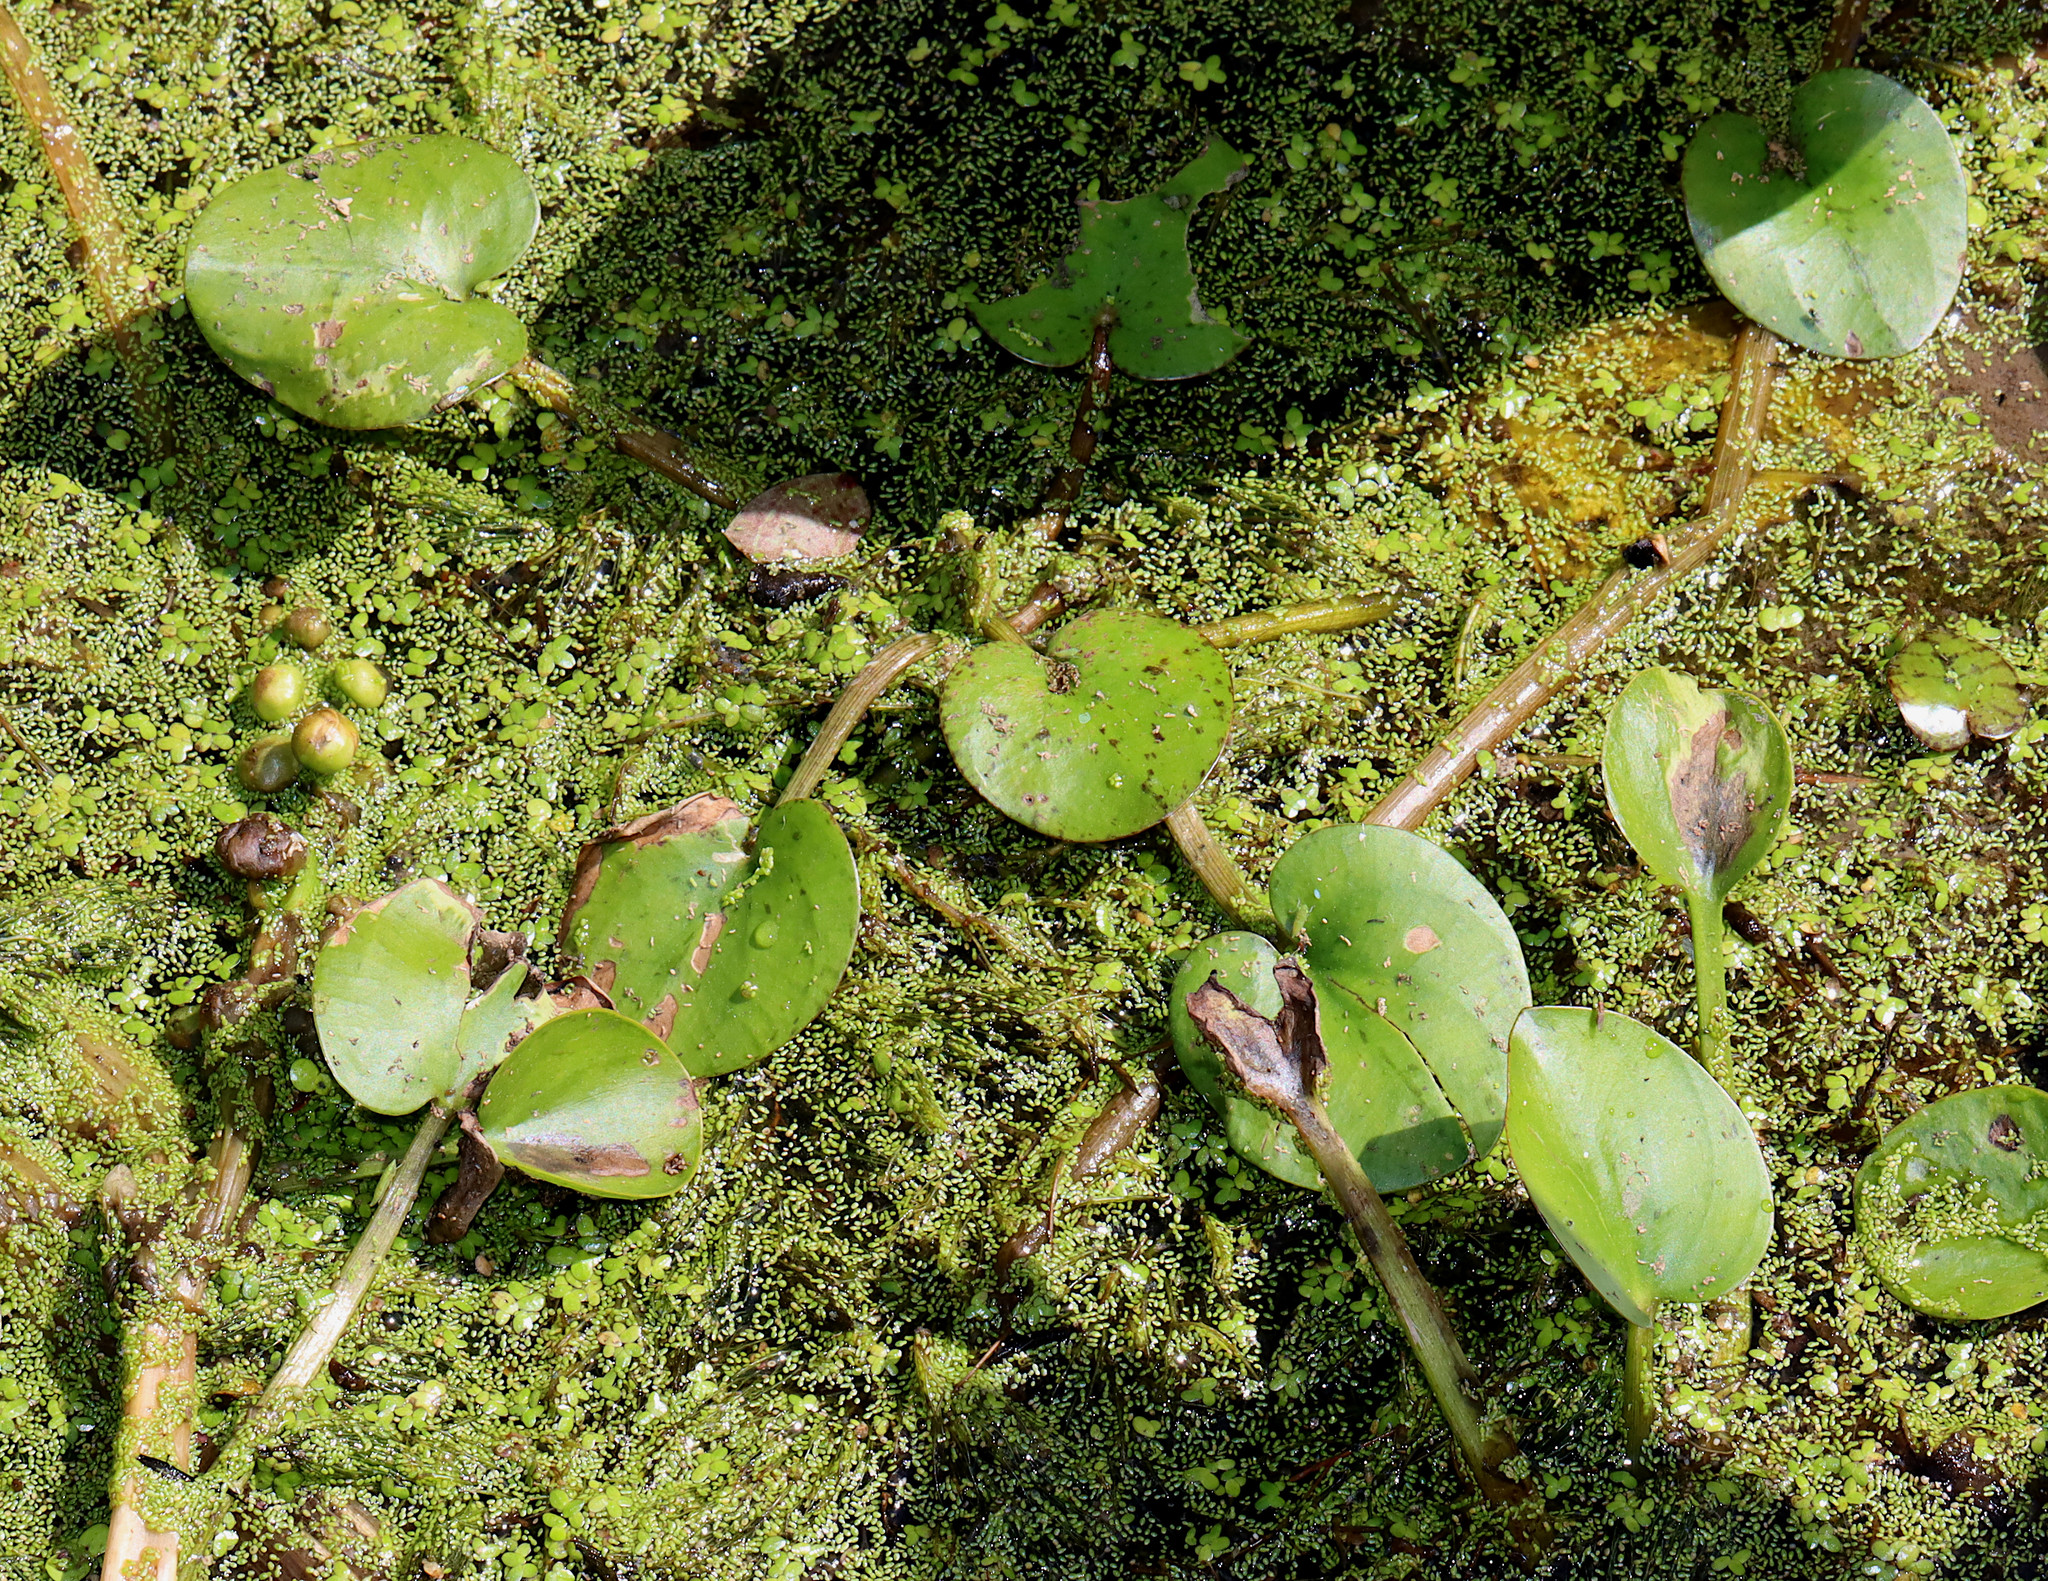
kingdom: Plantae
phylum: Tracheophyta
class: Liliopsida
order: Alismatales
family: Hydrocharitaceae
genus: Hydrocharis
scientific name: Hydrocharis spongia
